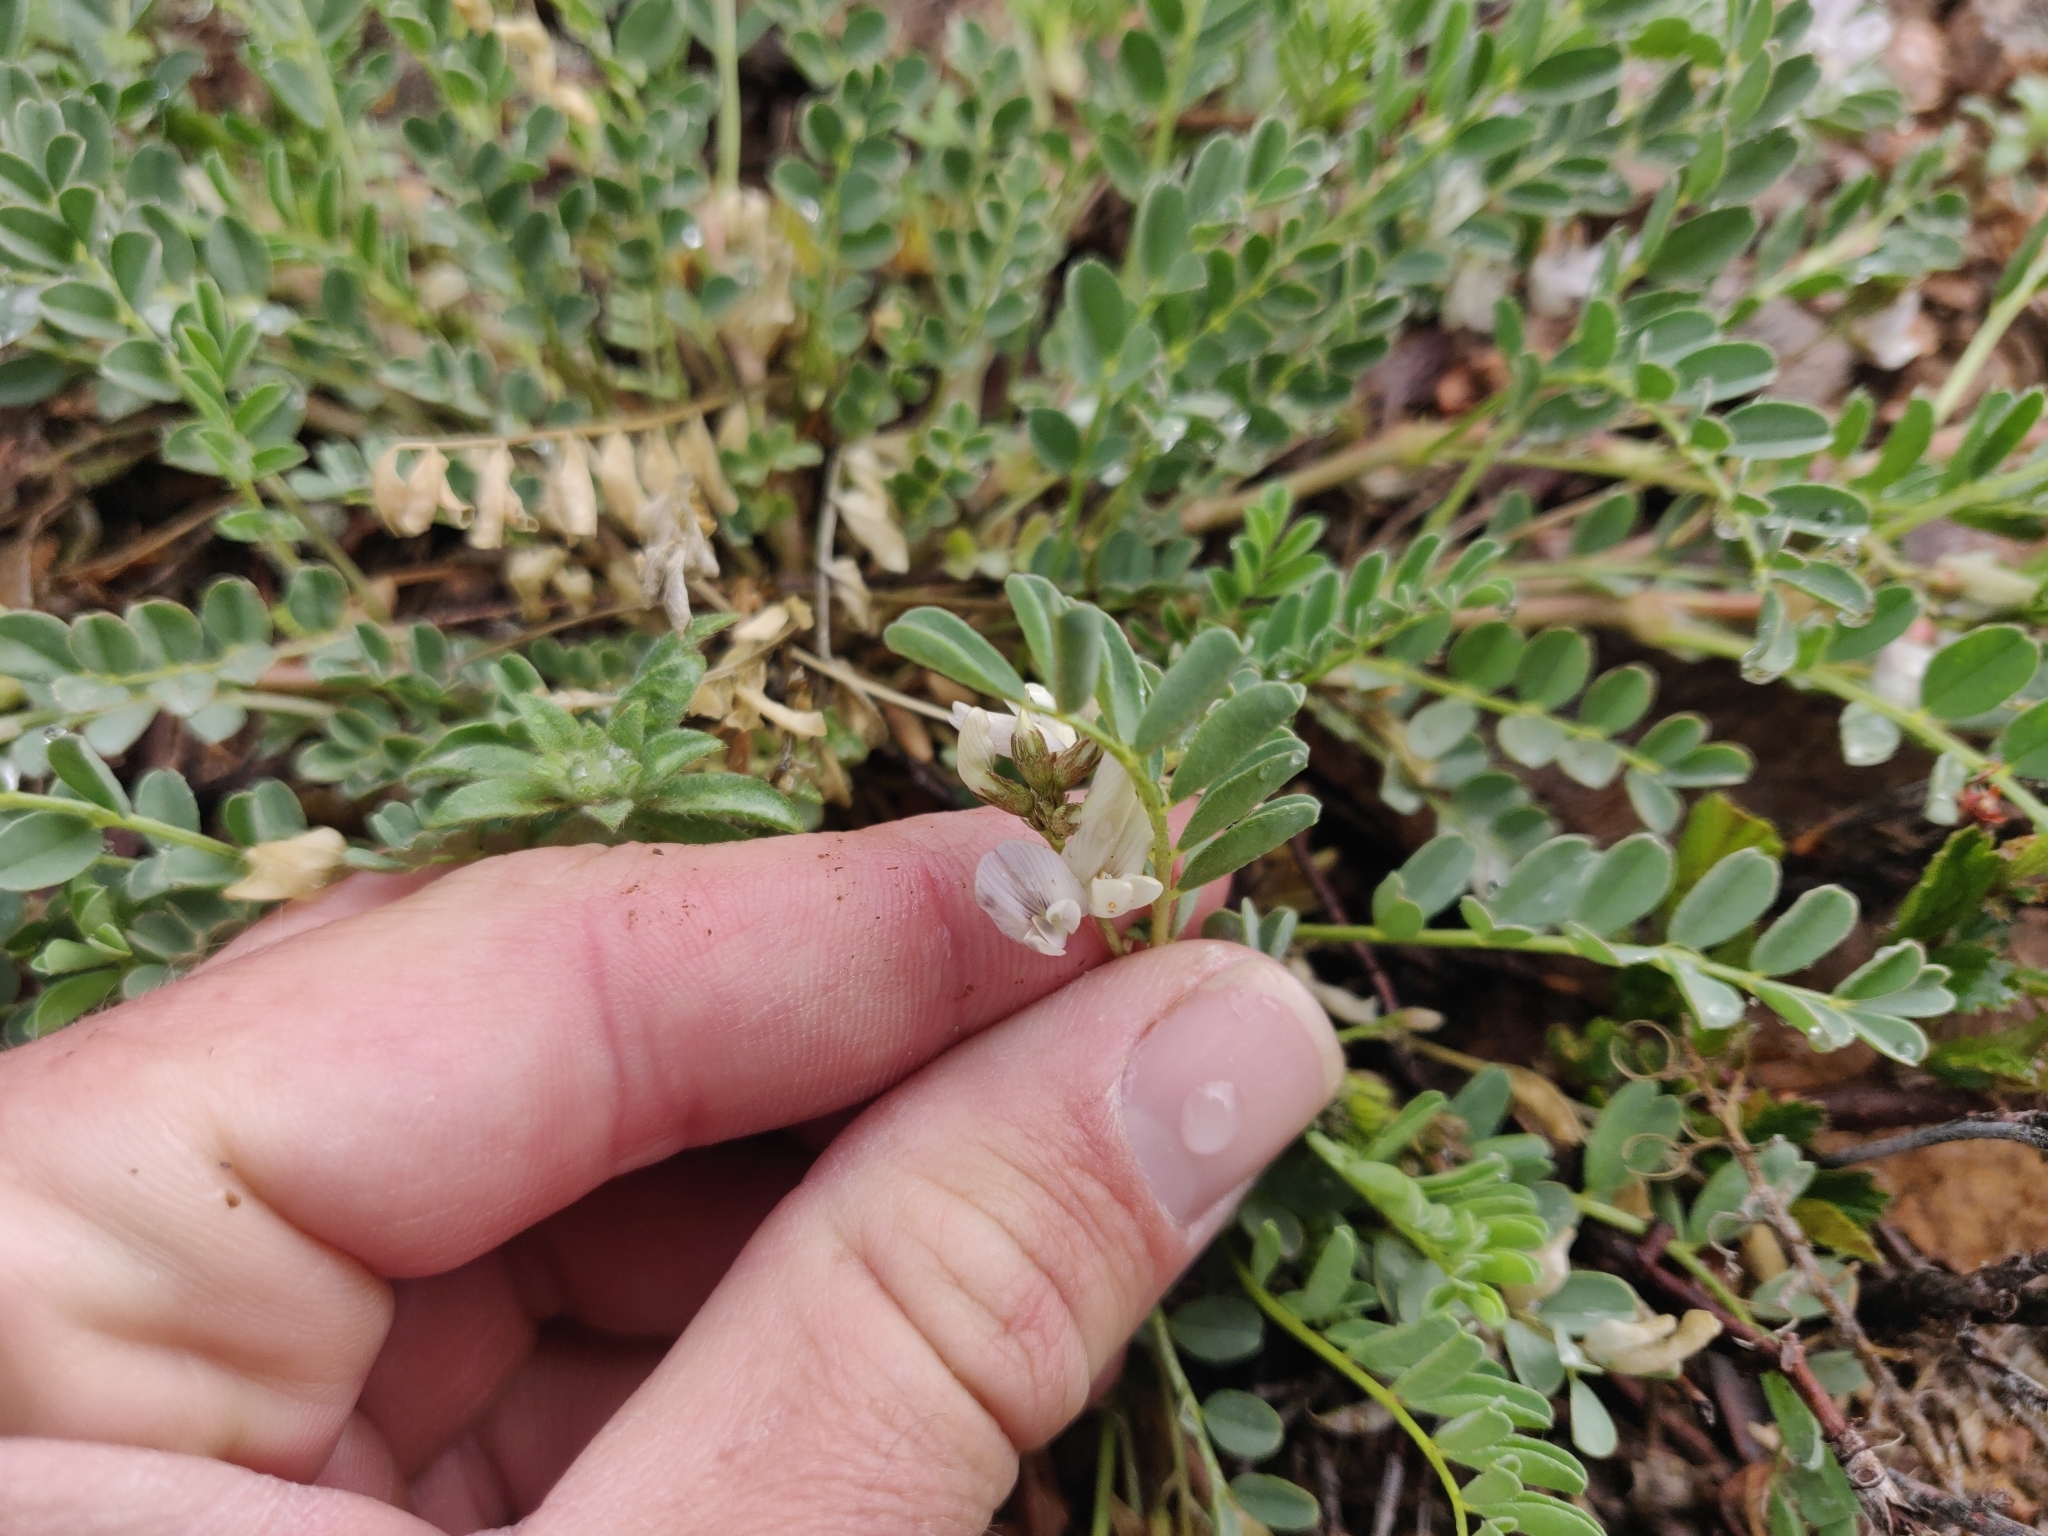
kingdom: Plantae
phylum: Tracheophyta
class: Magnoliopsida
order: Fabales
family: Fabaceae
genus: Astragalus
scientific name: Astragalus sparsiflorus
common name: Front range milkvetch
